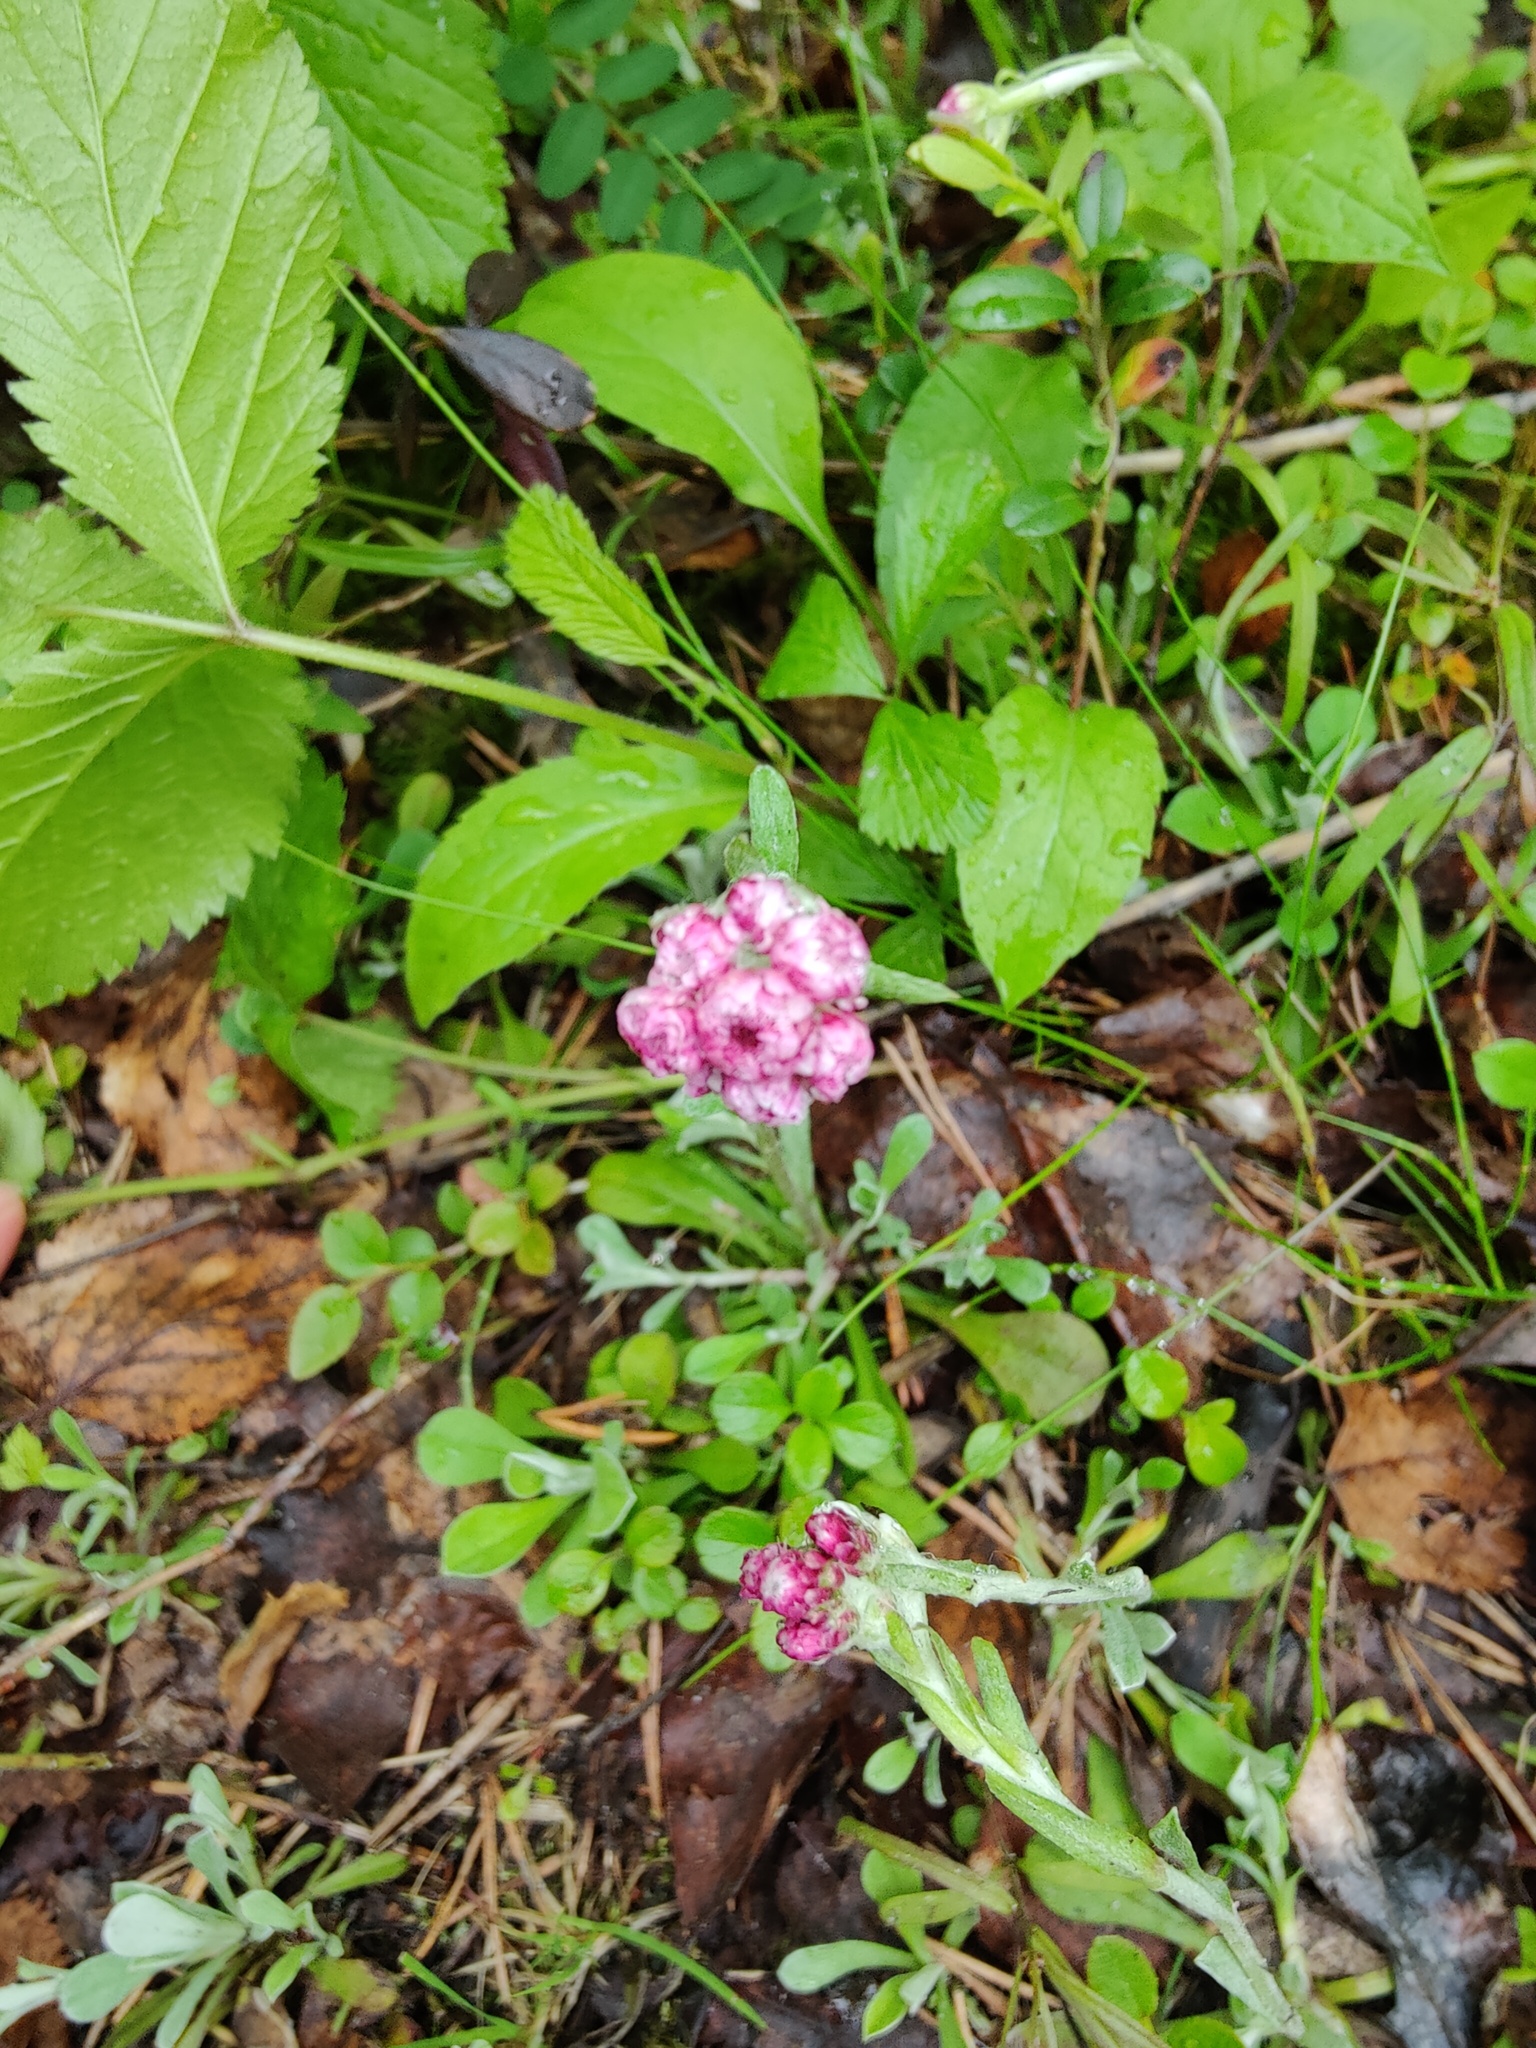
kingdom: Plantae
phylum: Tracheophyta
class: Magnoliopsida
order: Asterales
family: Asteraceae
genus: Antennaria
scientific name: Antennaria dioica
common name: Mountain everlasting
